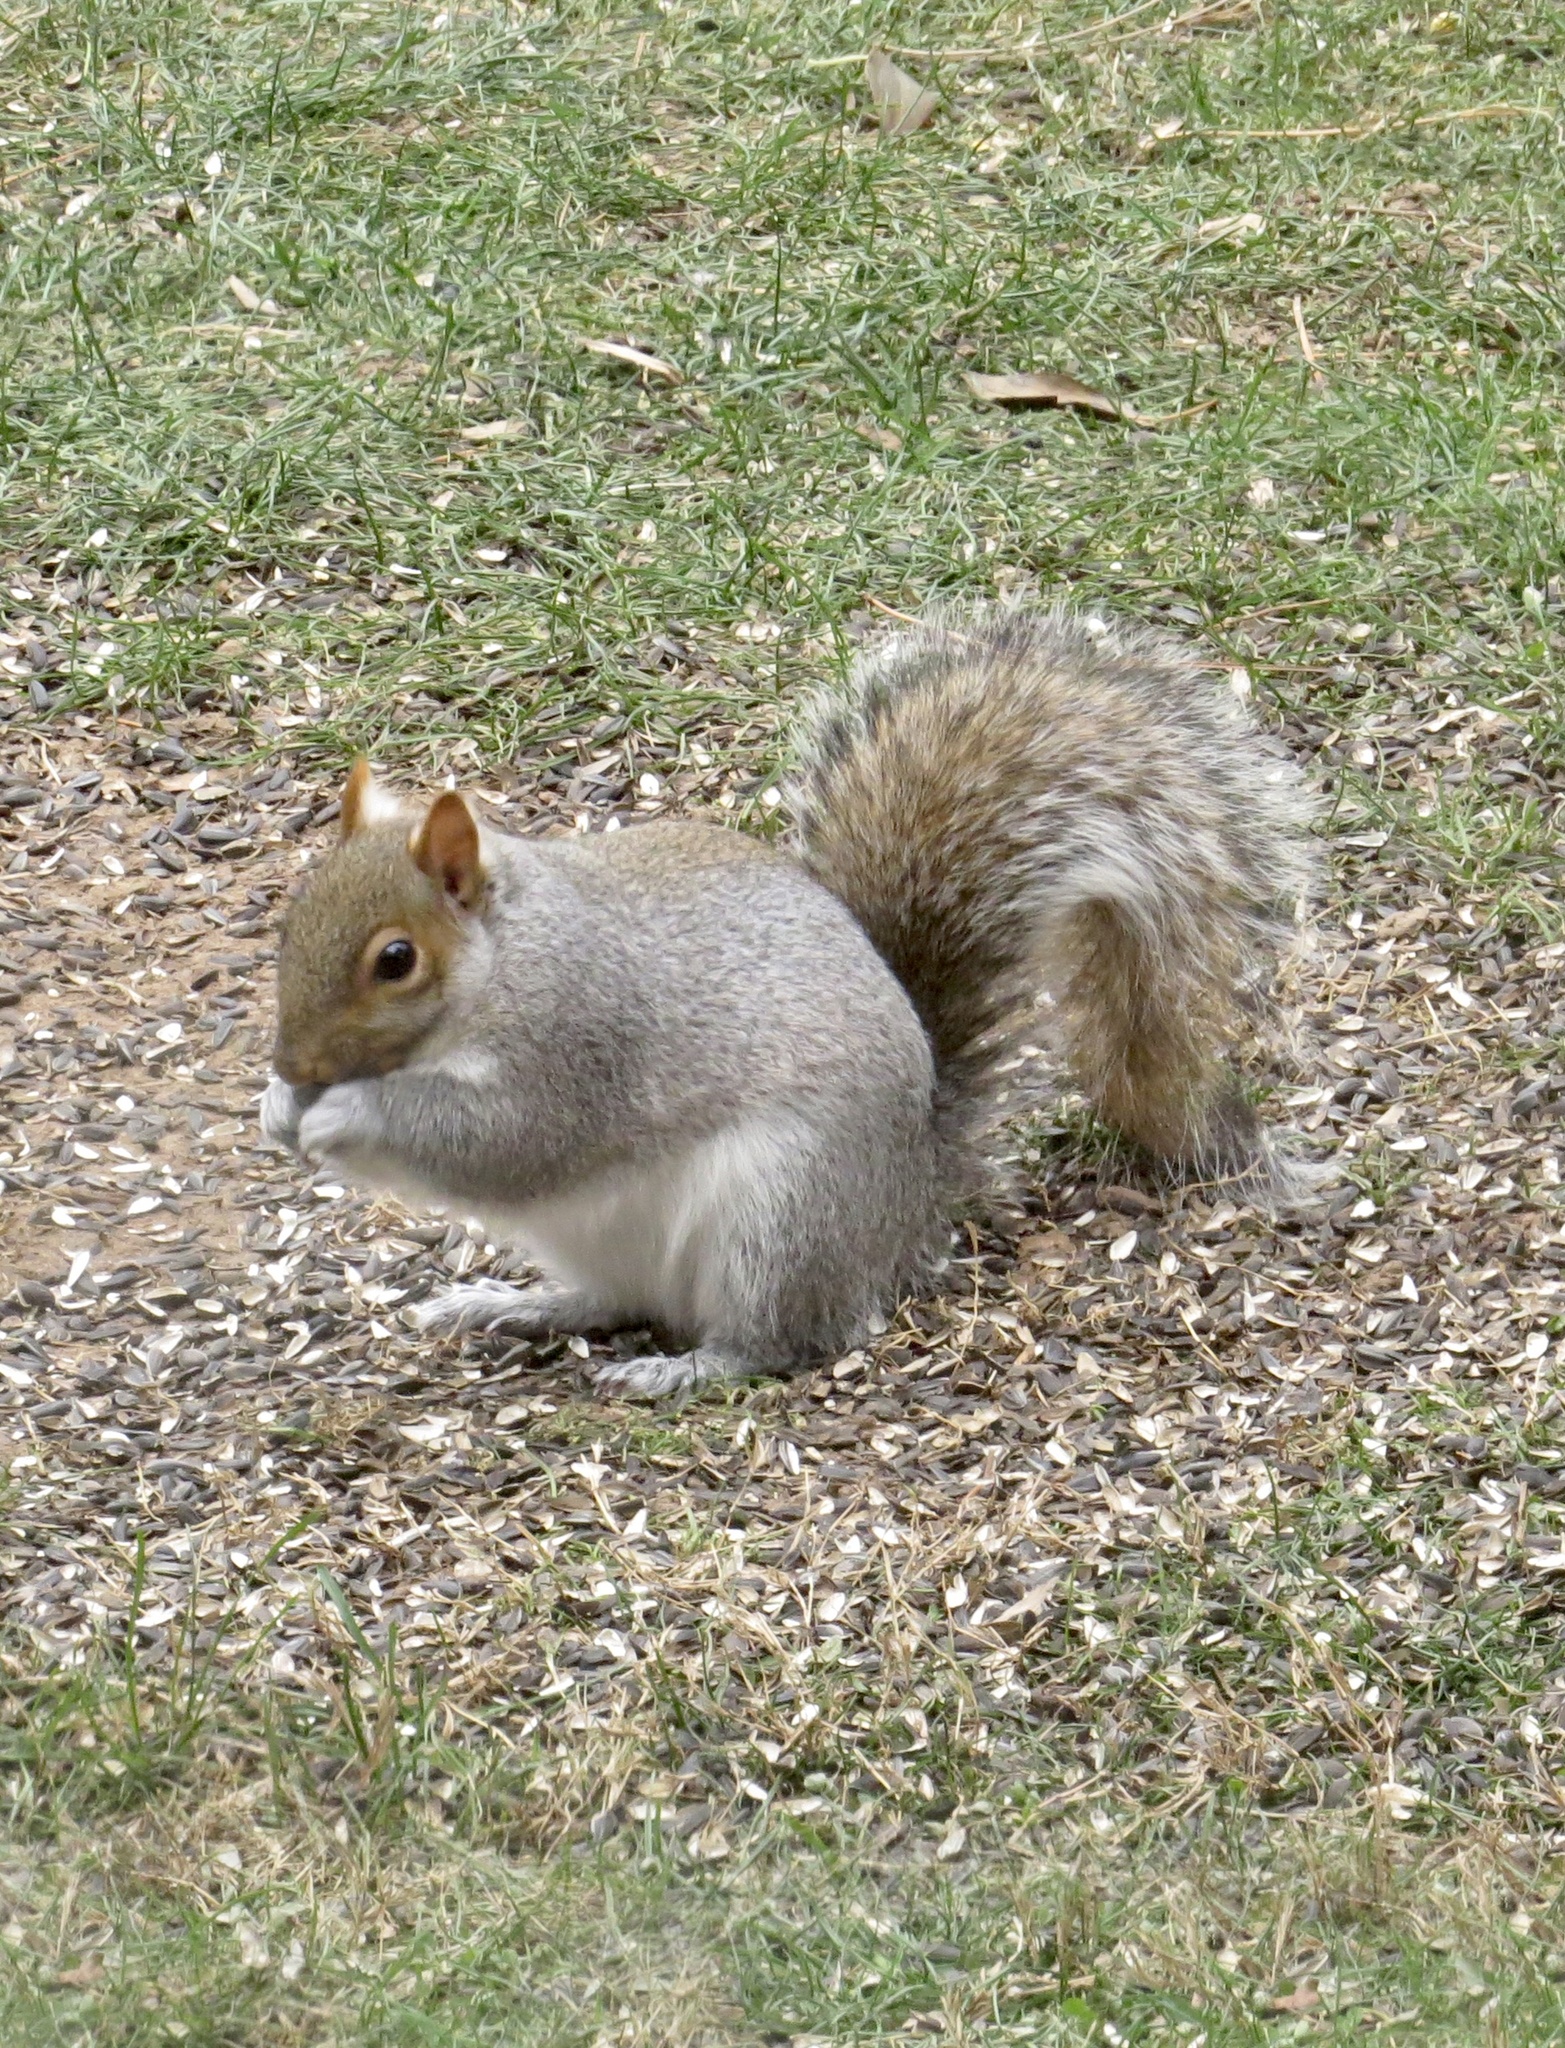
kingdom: Animalia
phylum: Chordata
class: Mammalia
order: Rodentia
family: Sciuridae
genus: Sciurus
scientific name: Sciurus carolinensis
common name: Eastern gray squirrel
